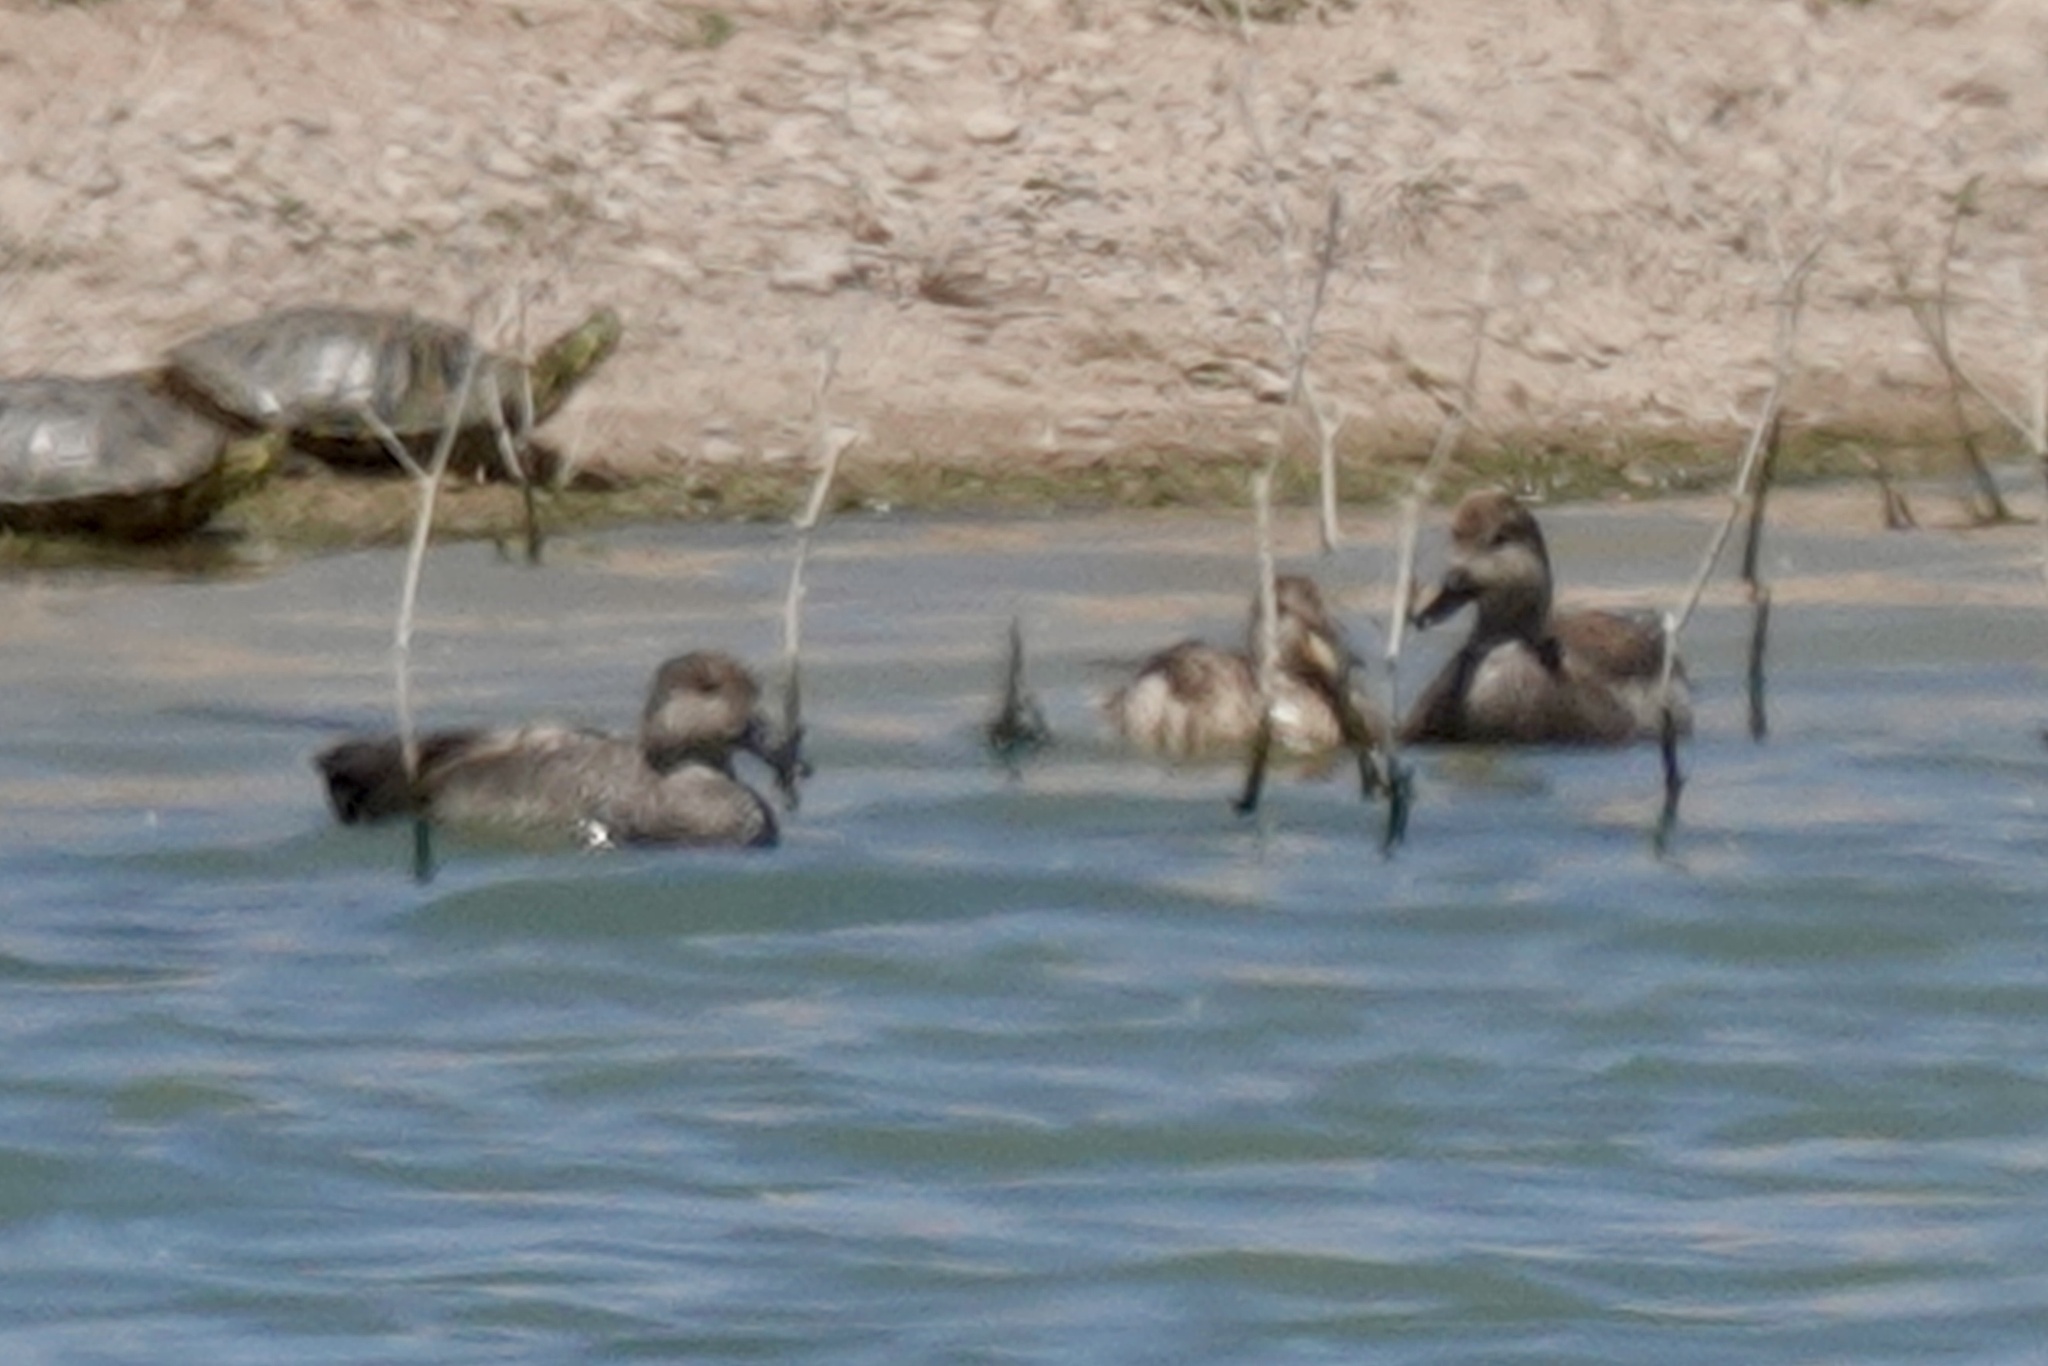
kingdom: Animalia
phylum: Chordata
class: Aves
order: Anseriformes
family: Anatidae
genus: Mareca
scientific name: Mareca strepera
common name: Gadwall
